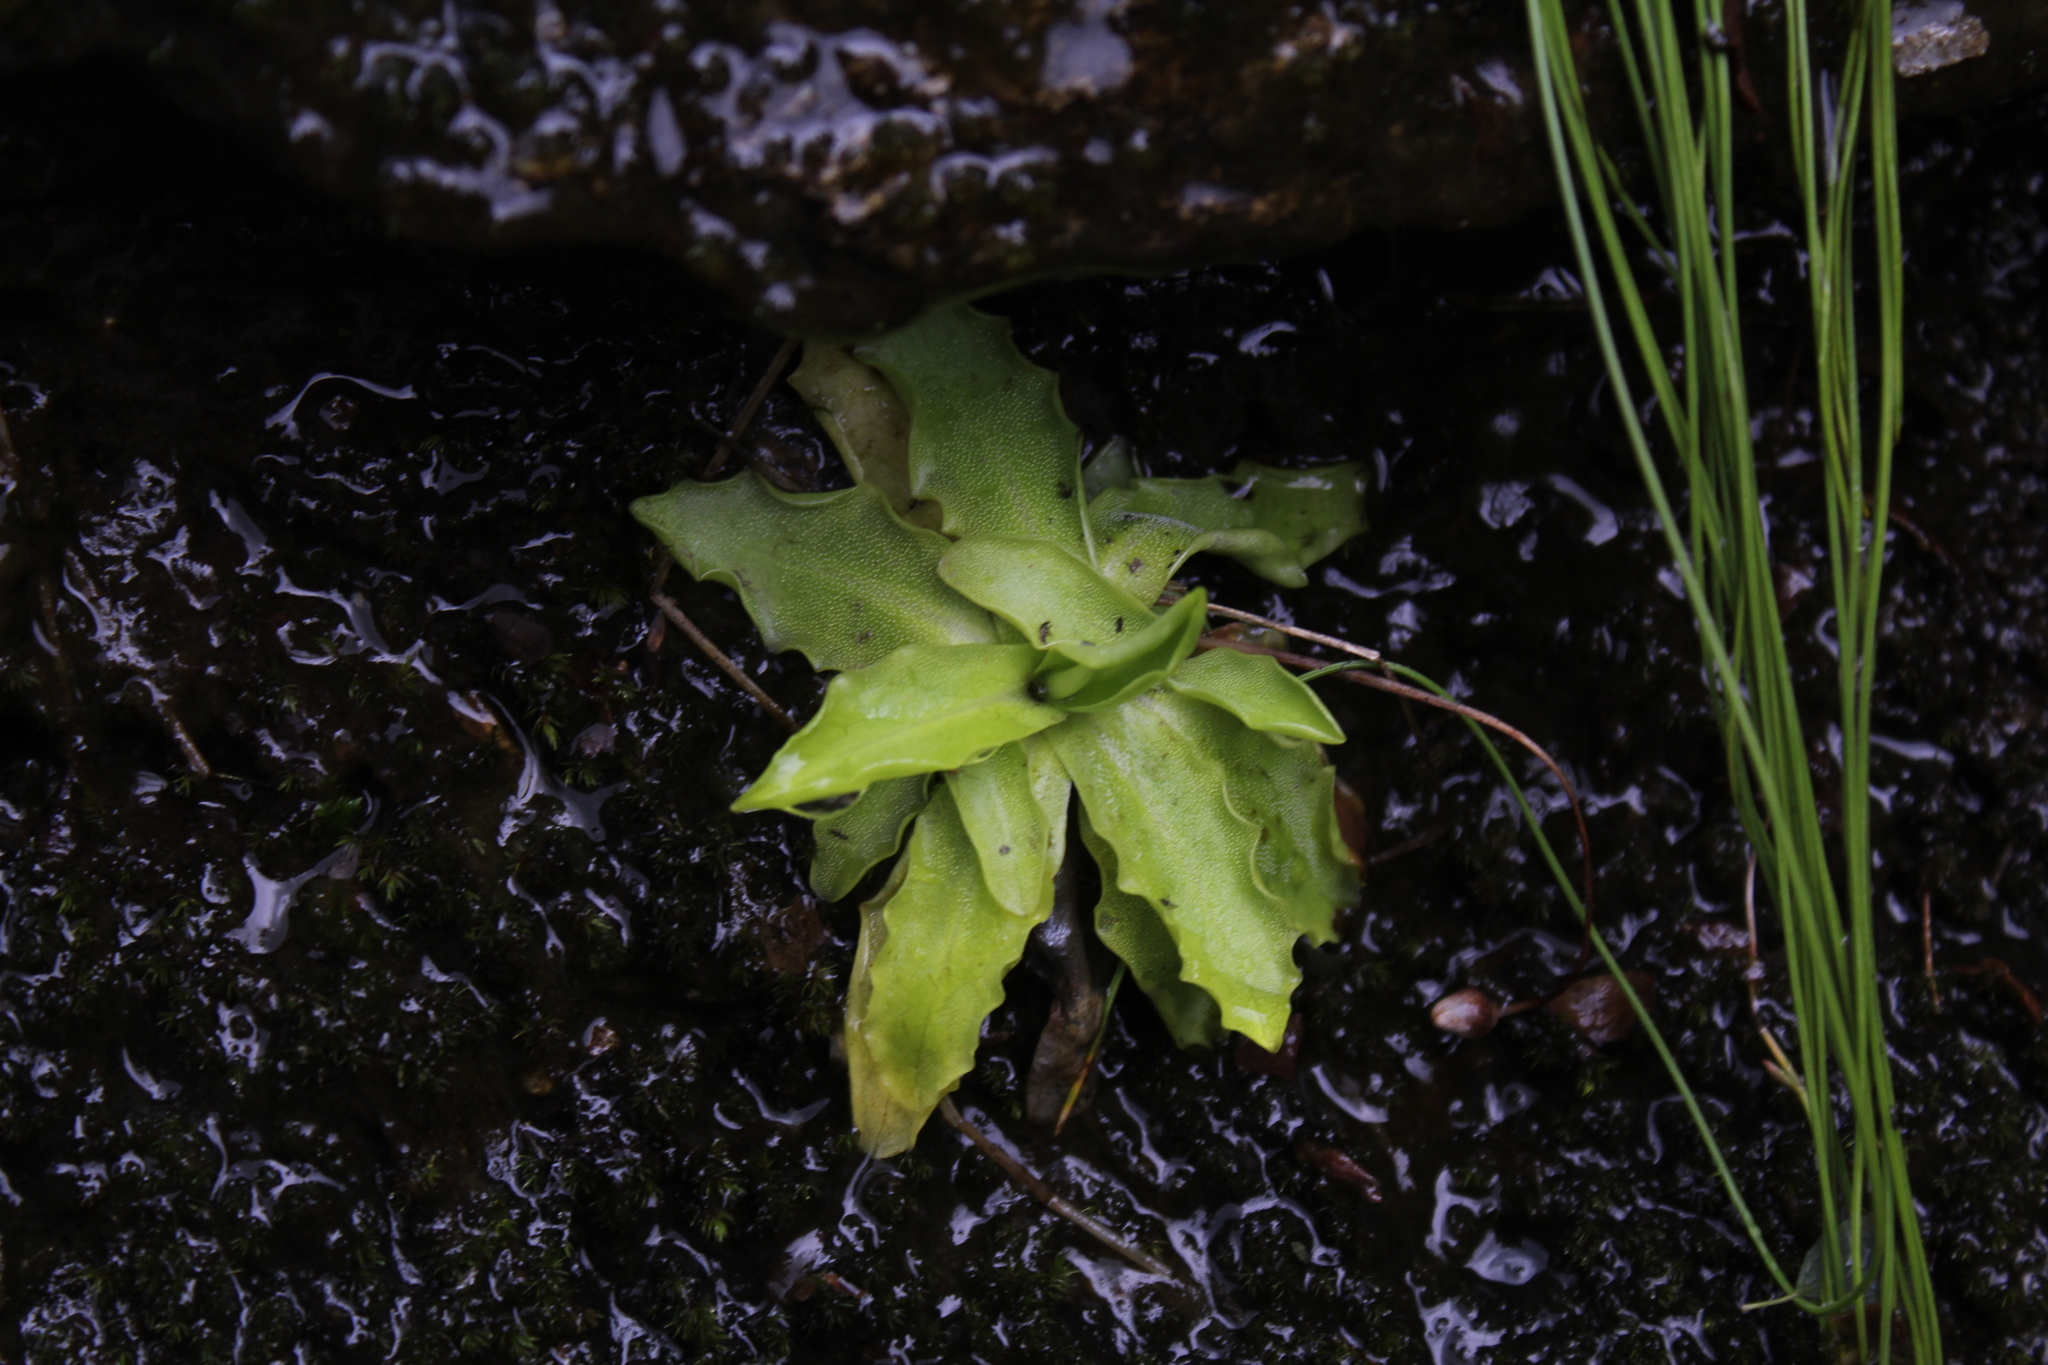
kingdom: Plantae
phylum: Tracheophyta
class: Magnoliopsida
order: Lamiales
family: Lentibulariaceae
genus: Pinguicula
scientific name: Pinguicula vulgaris
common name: Common butterwort
